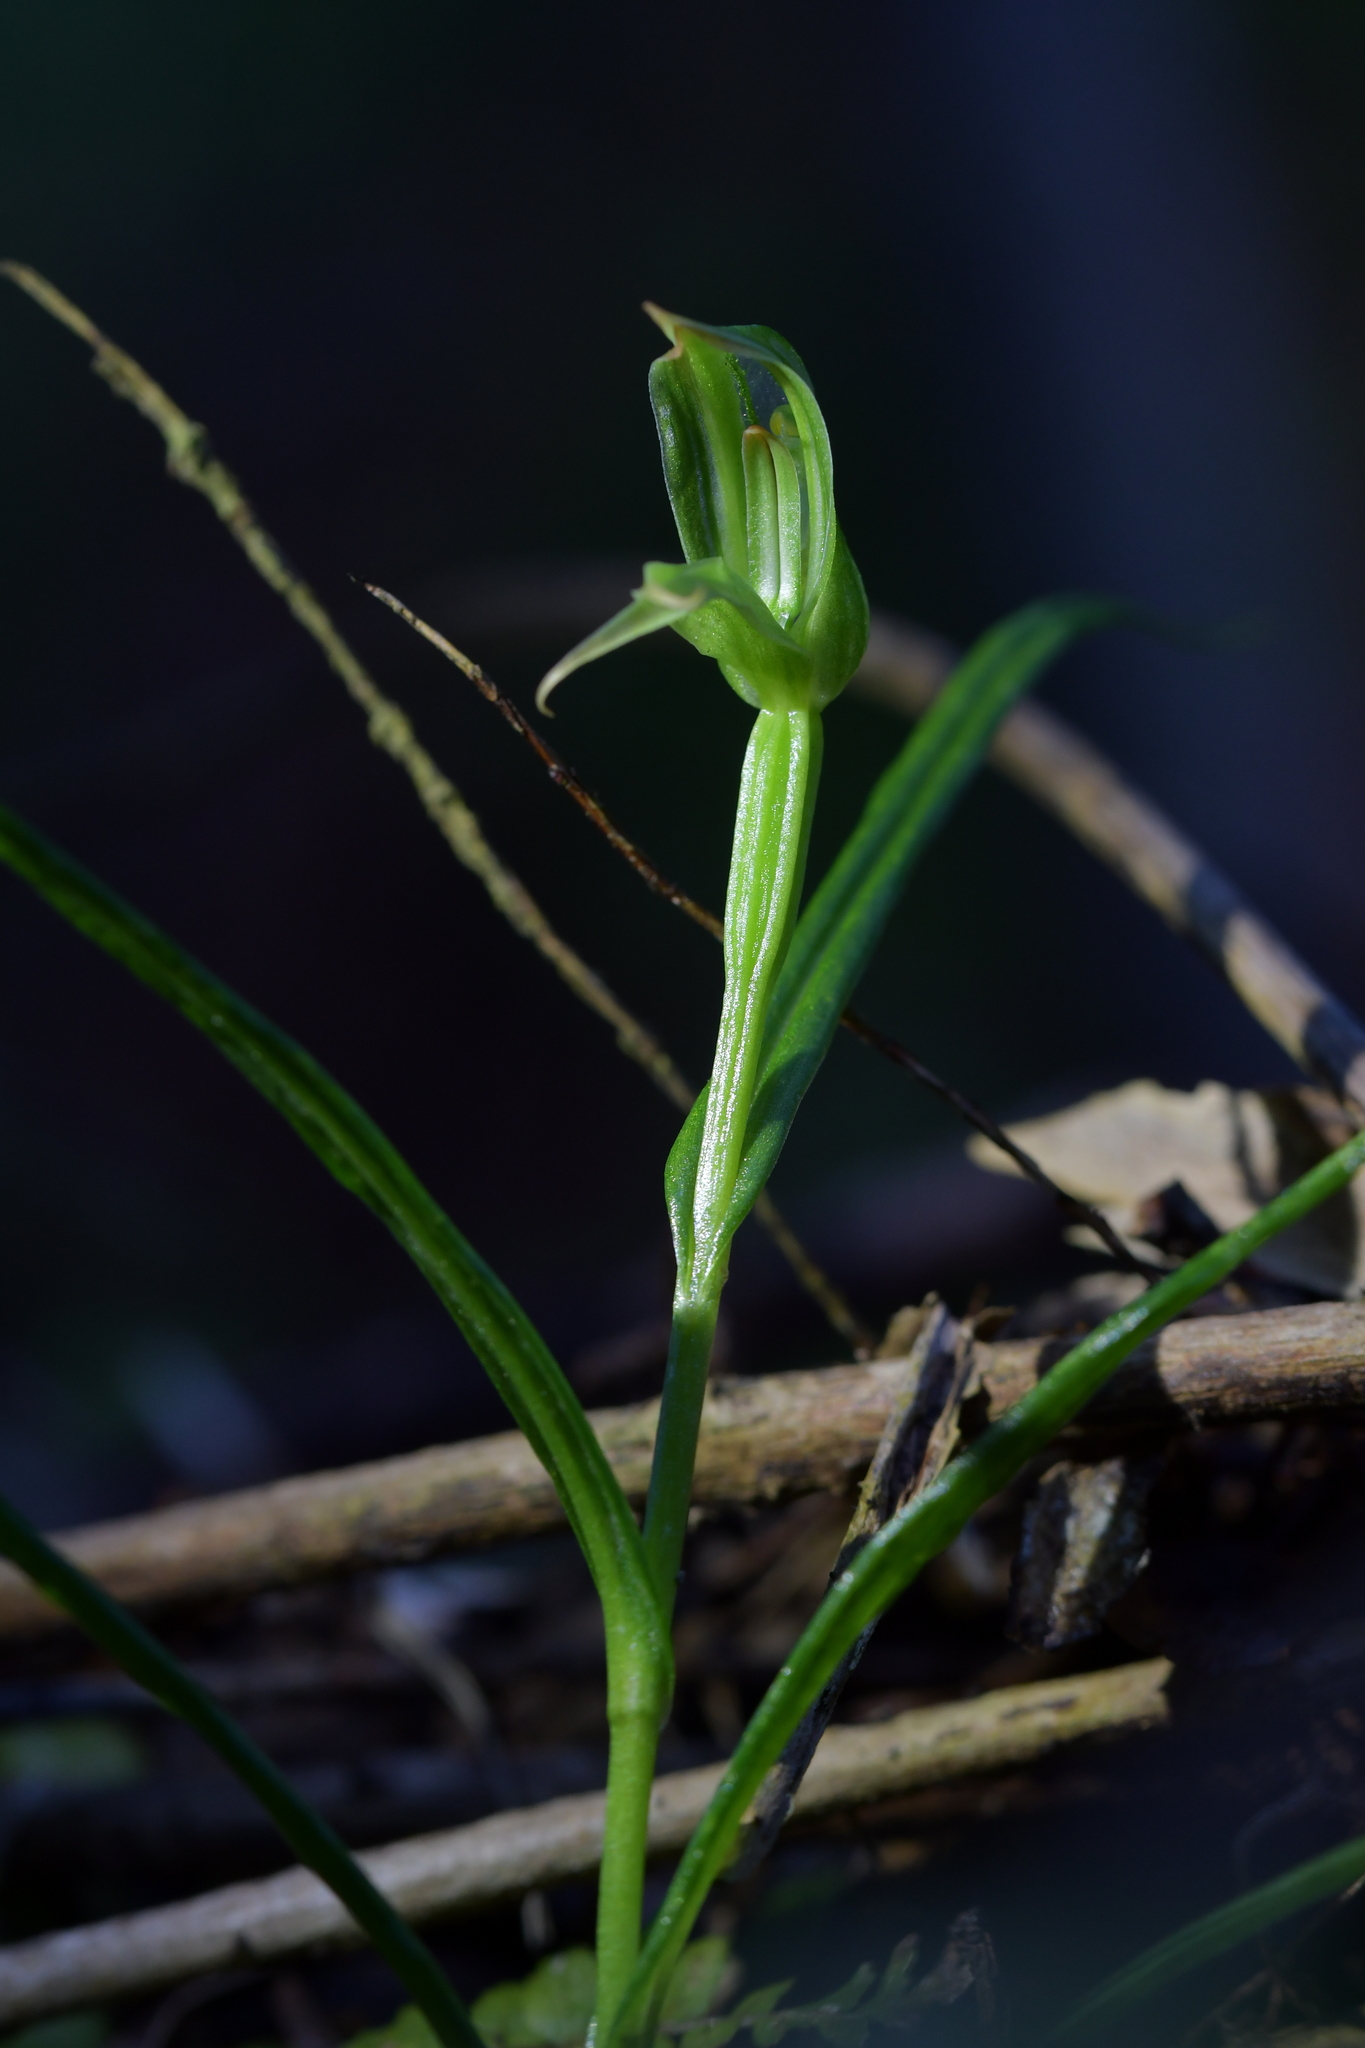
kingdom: Plantae
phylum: Tracheophyta
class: Liliopsida
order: Asparagales
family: Orchidaceae
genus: Pterostylis
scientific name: Pterostylis porrecta
